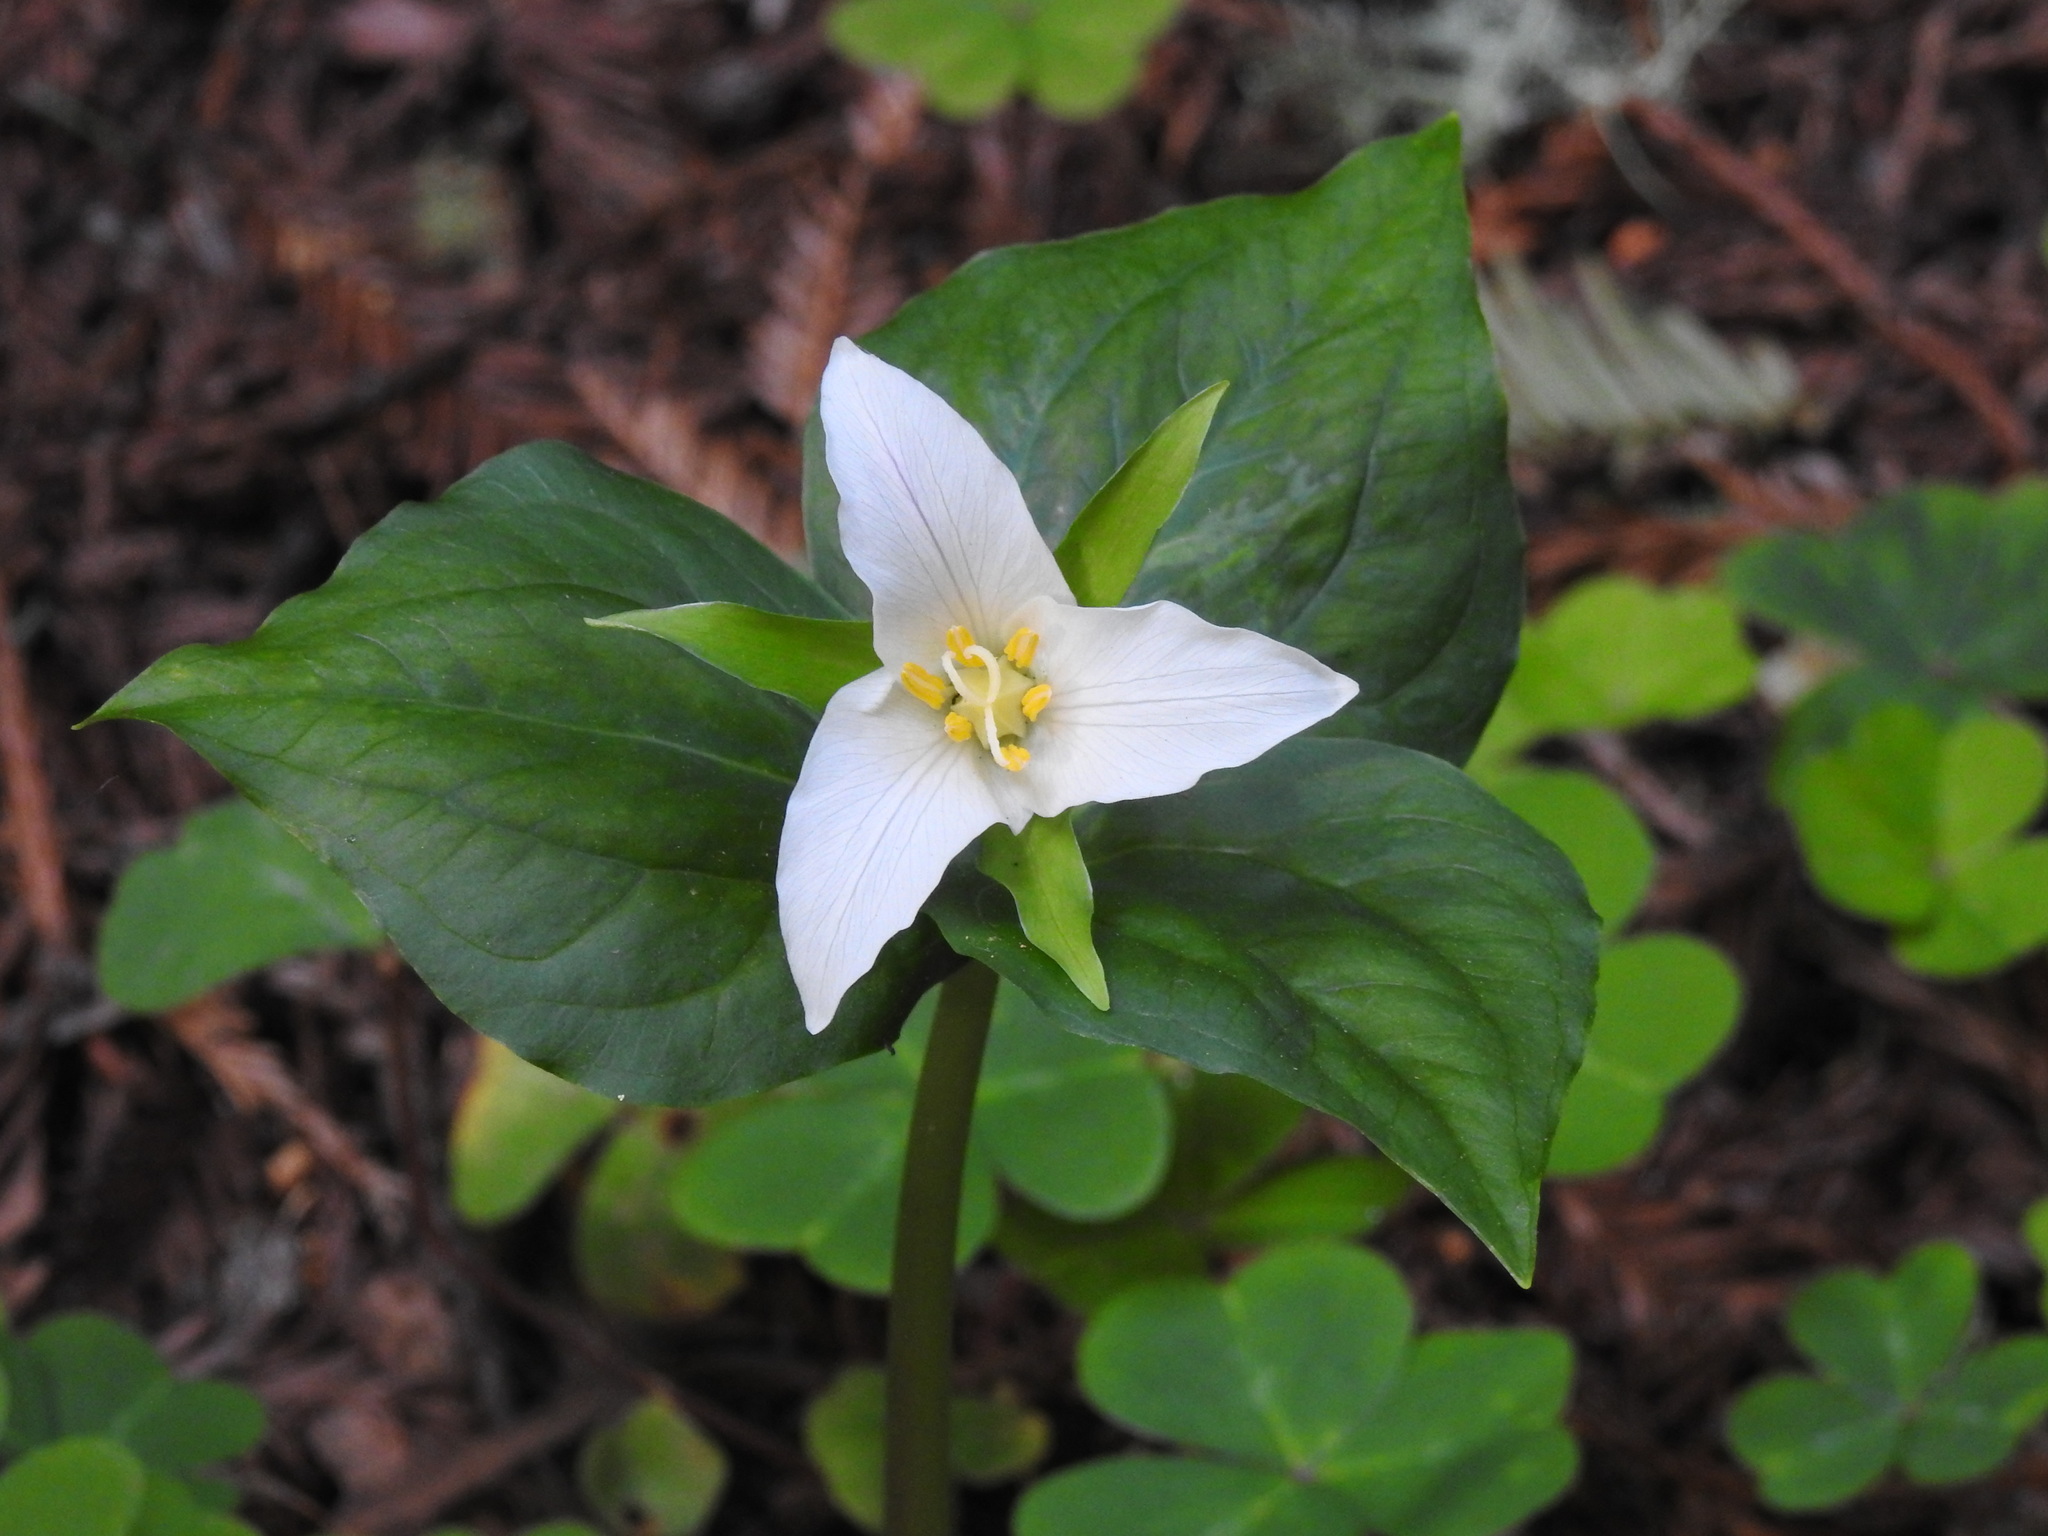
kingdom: Plantae
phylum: Tracheophyta
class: Liliopsida
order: Liliales
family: Melanthiaceae
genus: Trillium
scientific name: Trillium ovatum
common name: Pacific trillium
